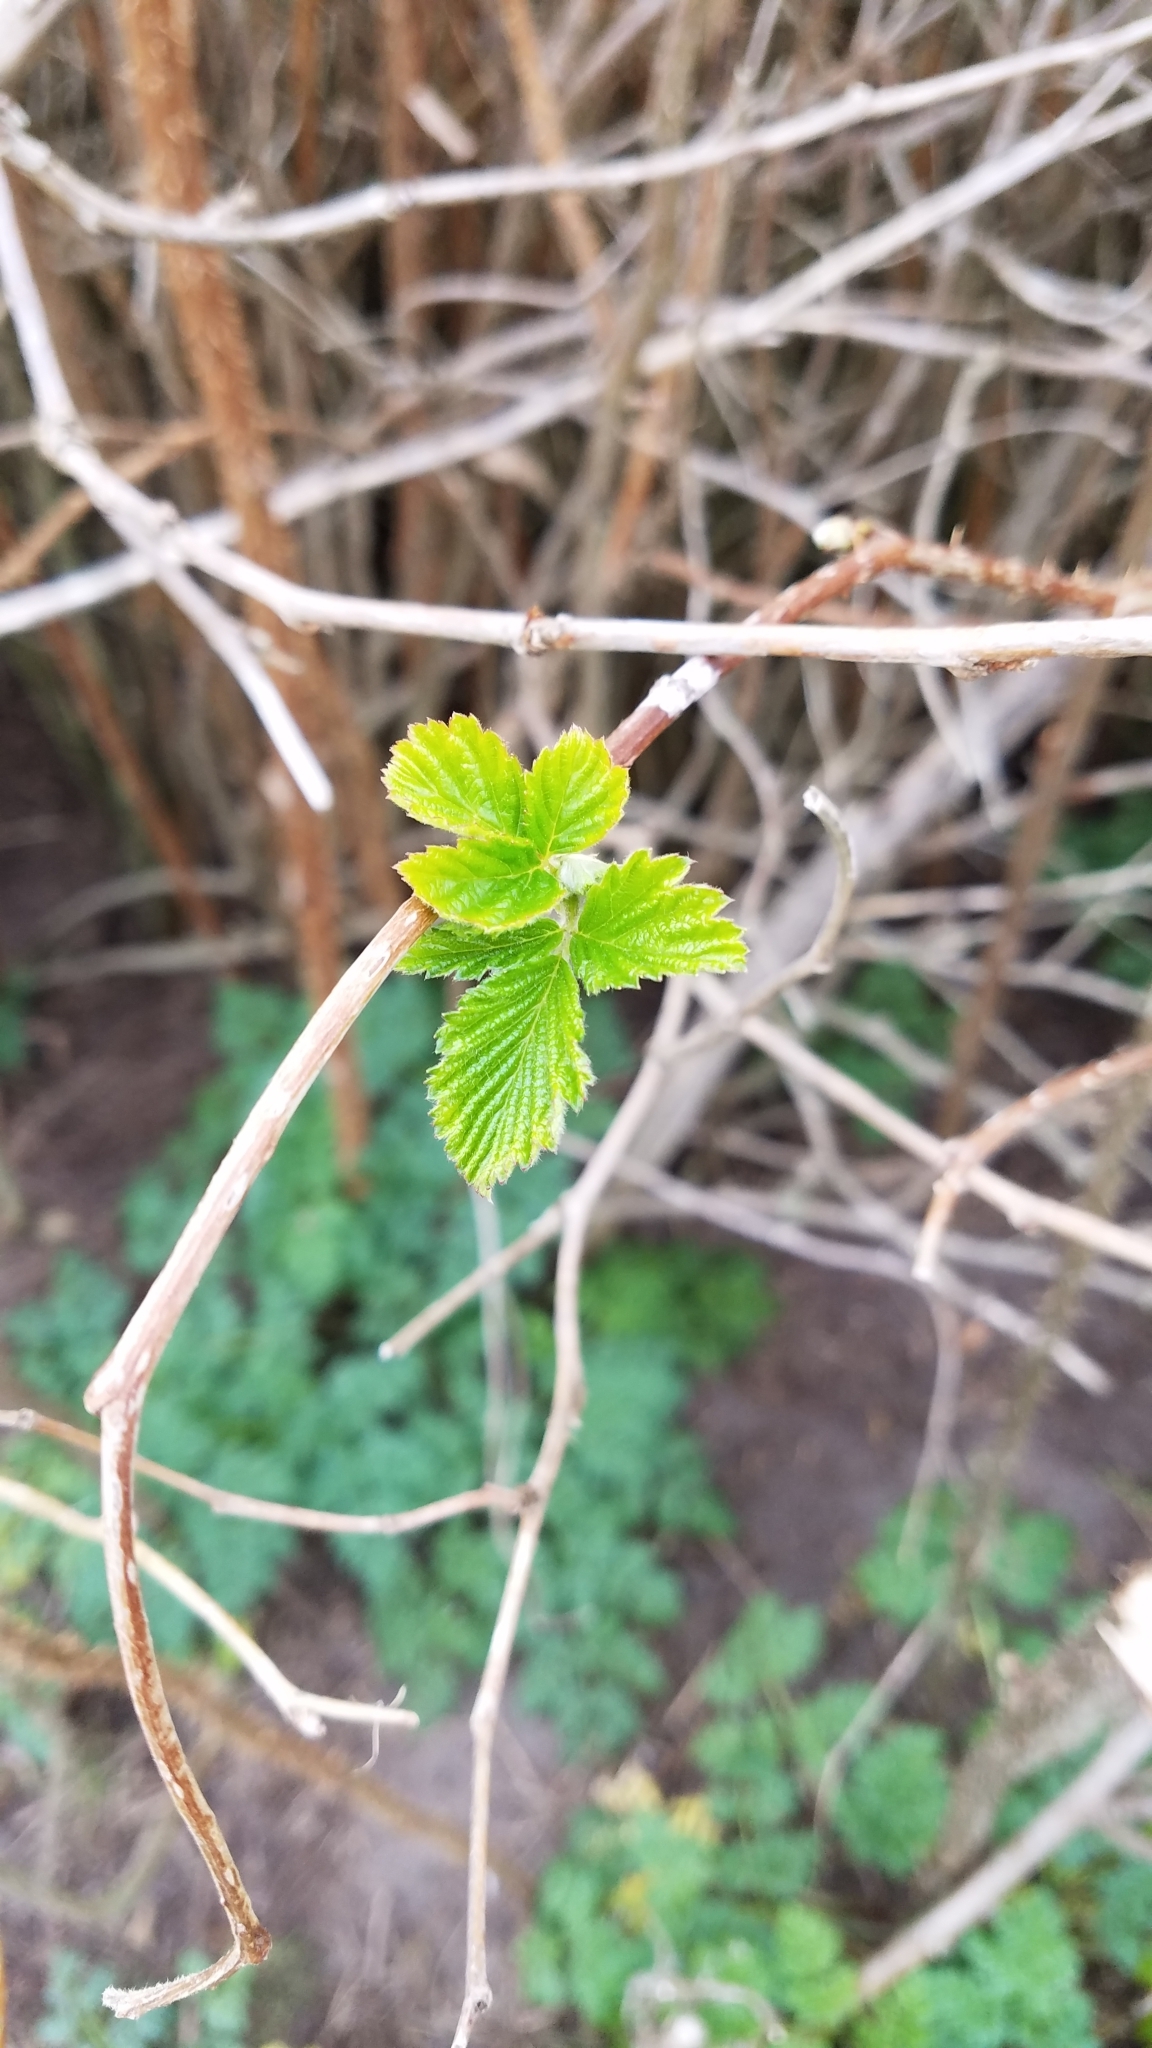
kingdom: Plantae
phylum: Tracheophyta
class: Magnoliopsida
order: Rosales
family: Rosaceae
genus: Rubus
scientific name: Rubus spectabilis
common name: Salmonberry
